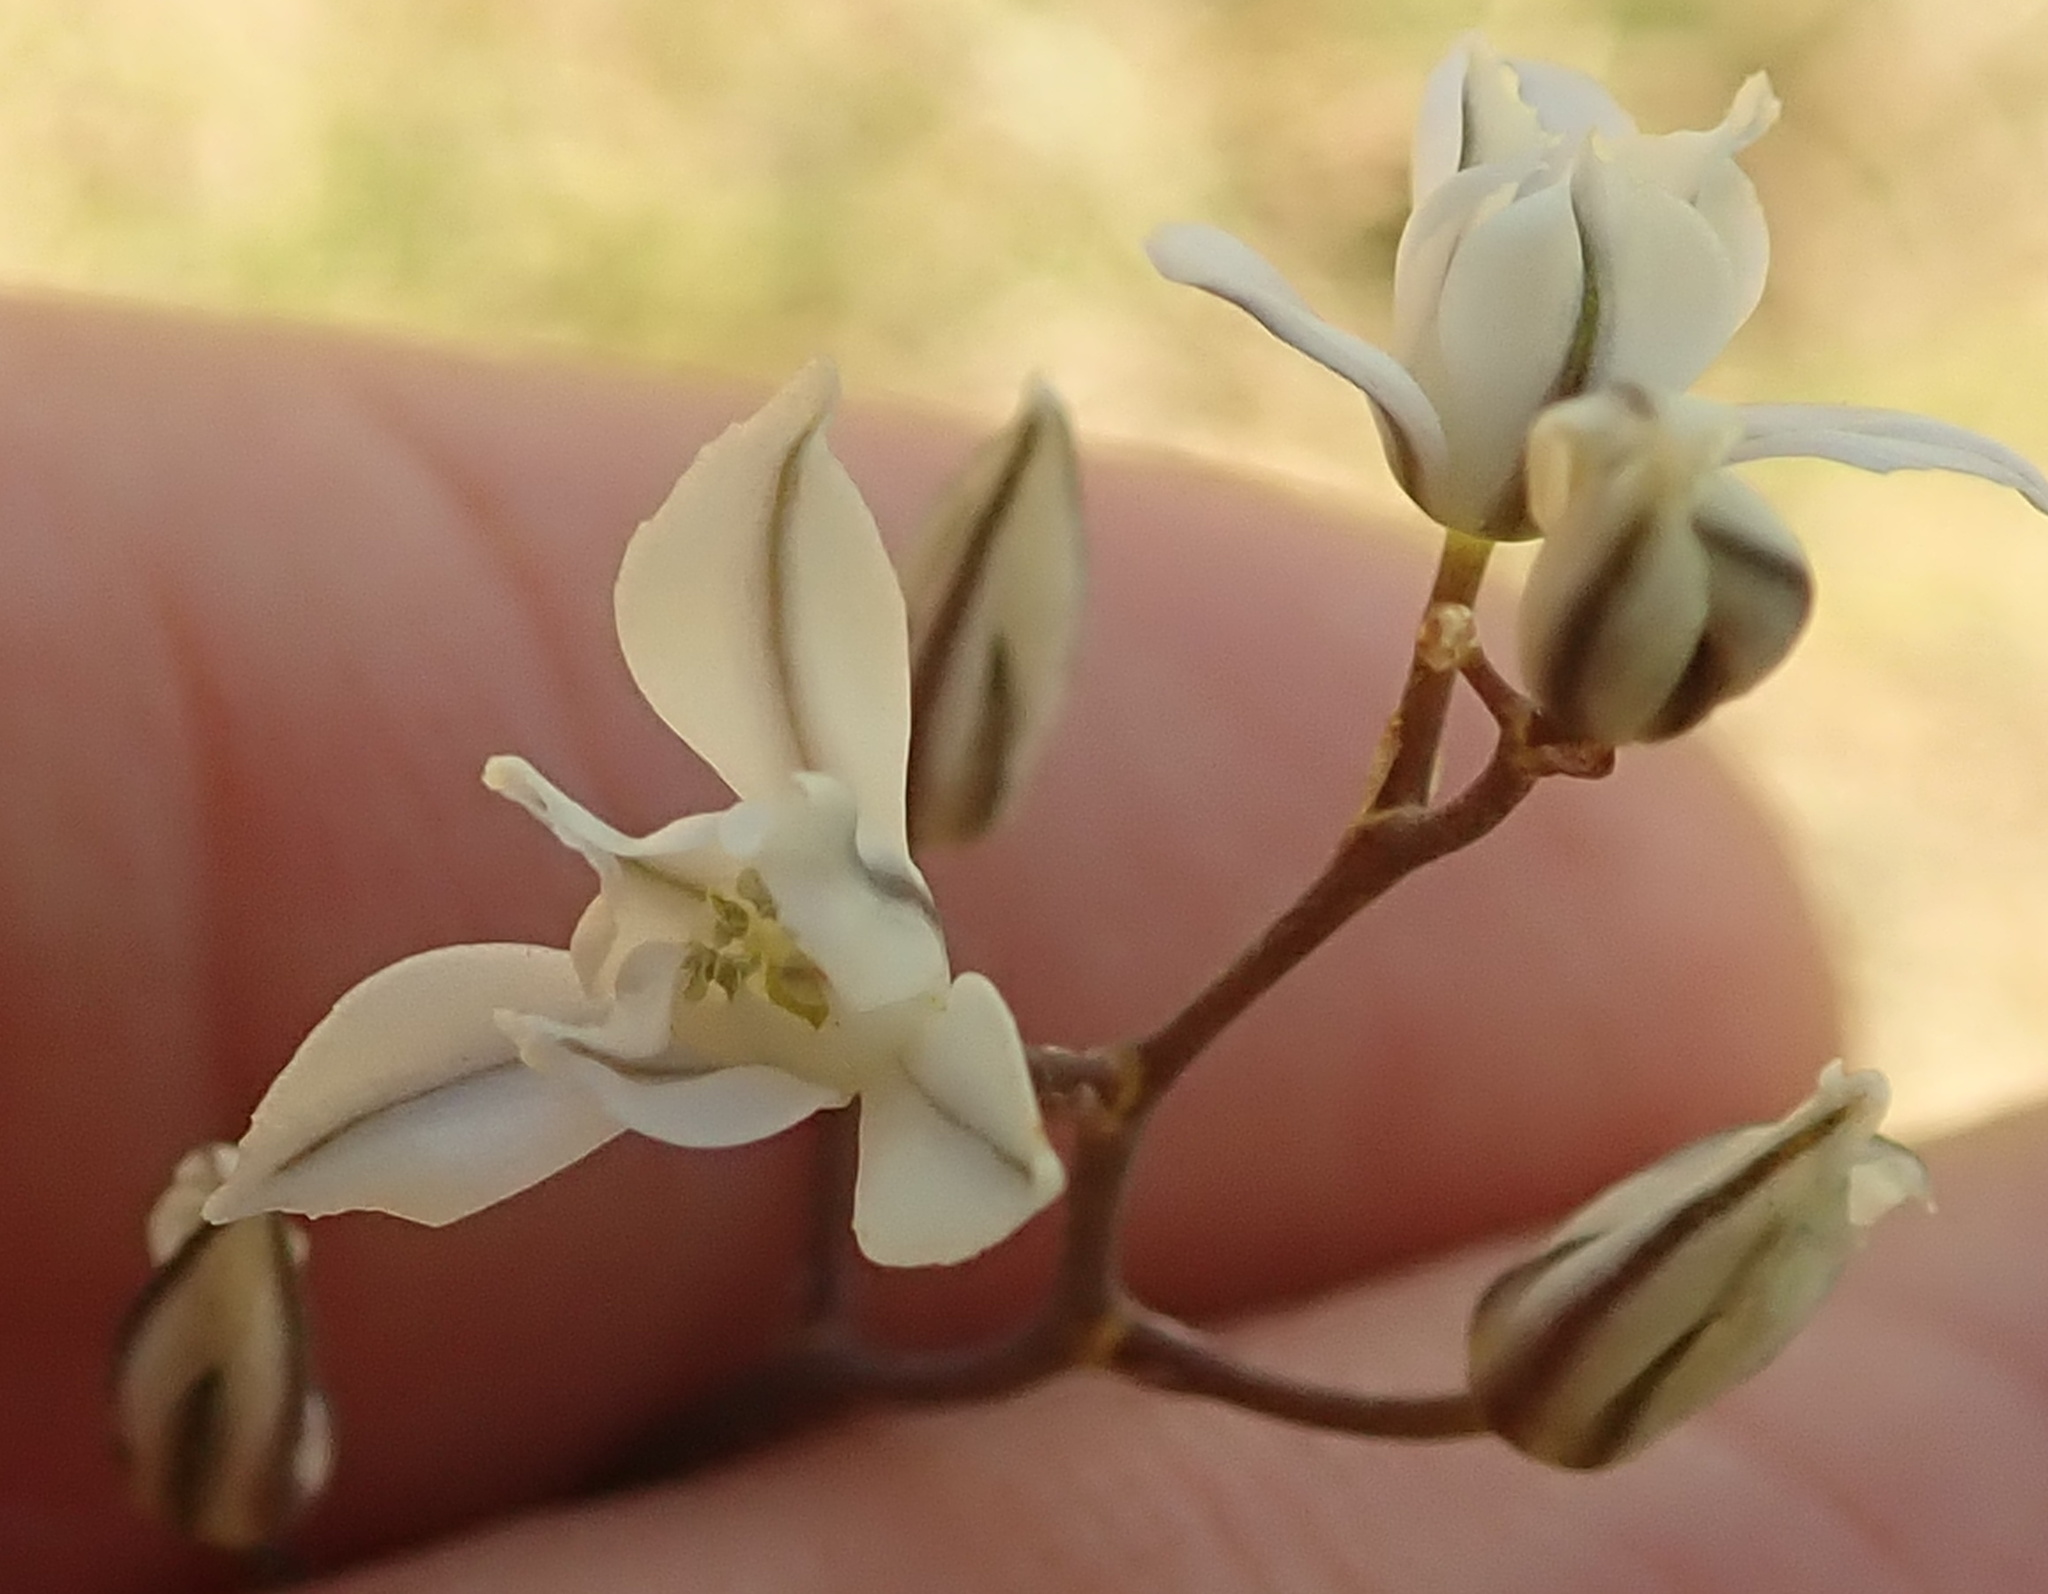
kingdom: Plantae
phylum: Tracheophyta
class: Liliopsida
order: Asparagales
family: Asparagaceae
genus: Eriospermum
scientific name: Eriospermum ornithogaloides
